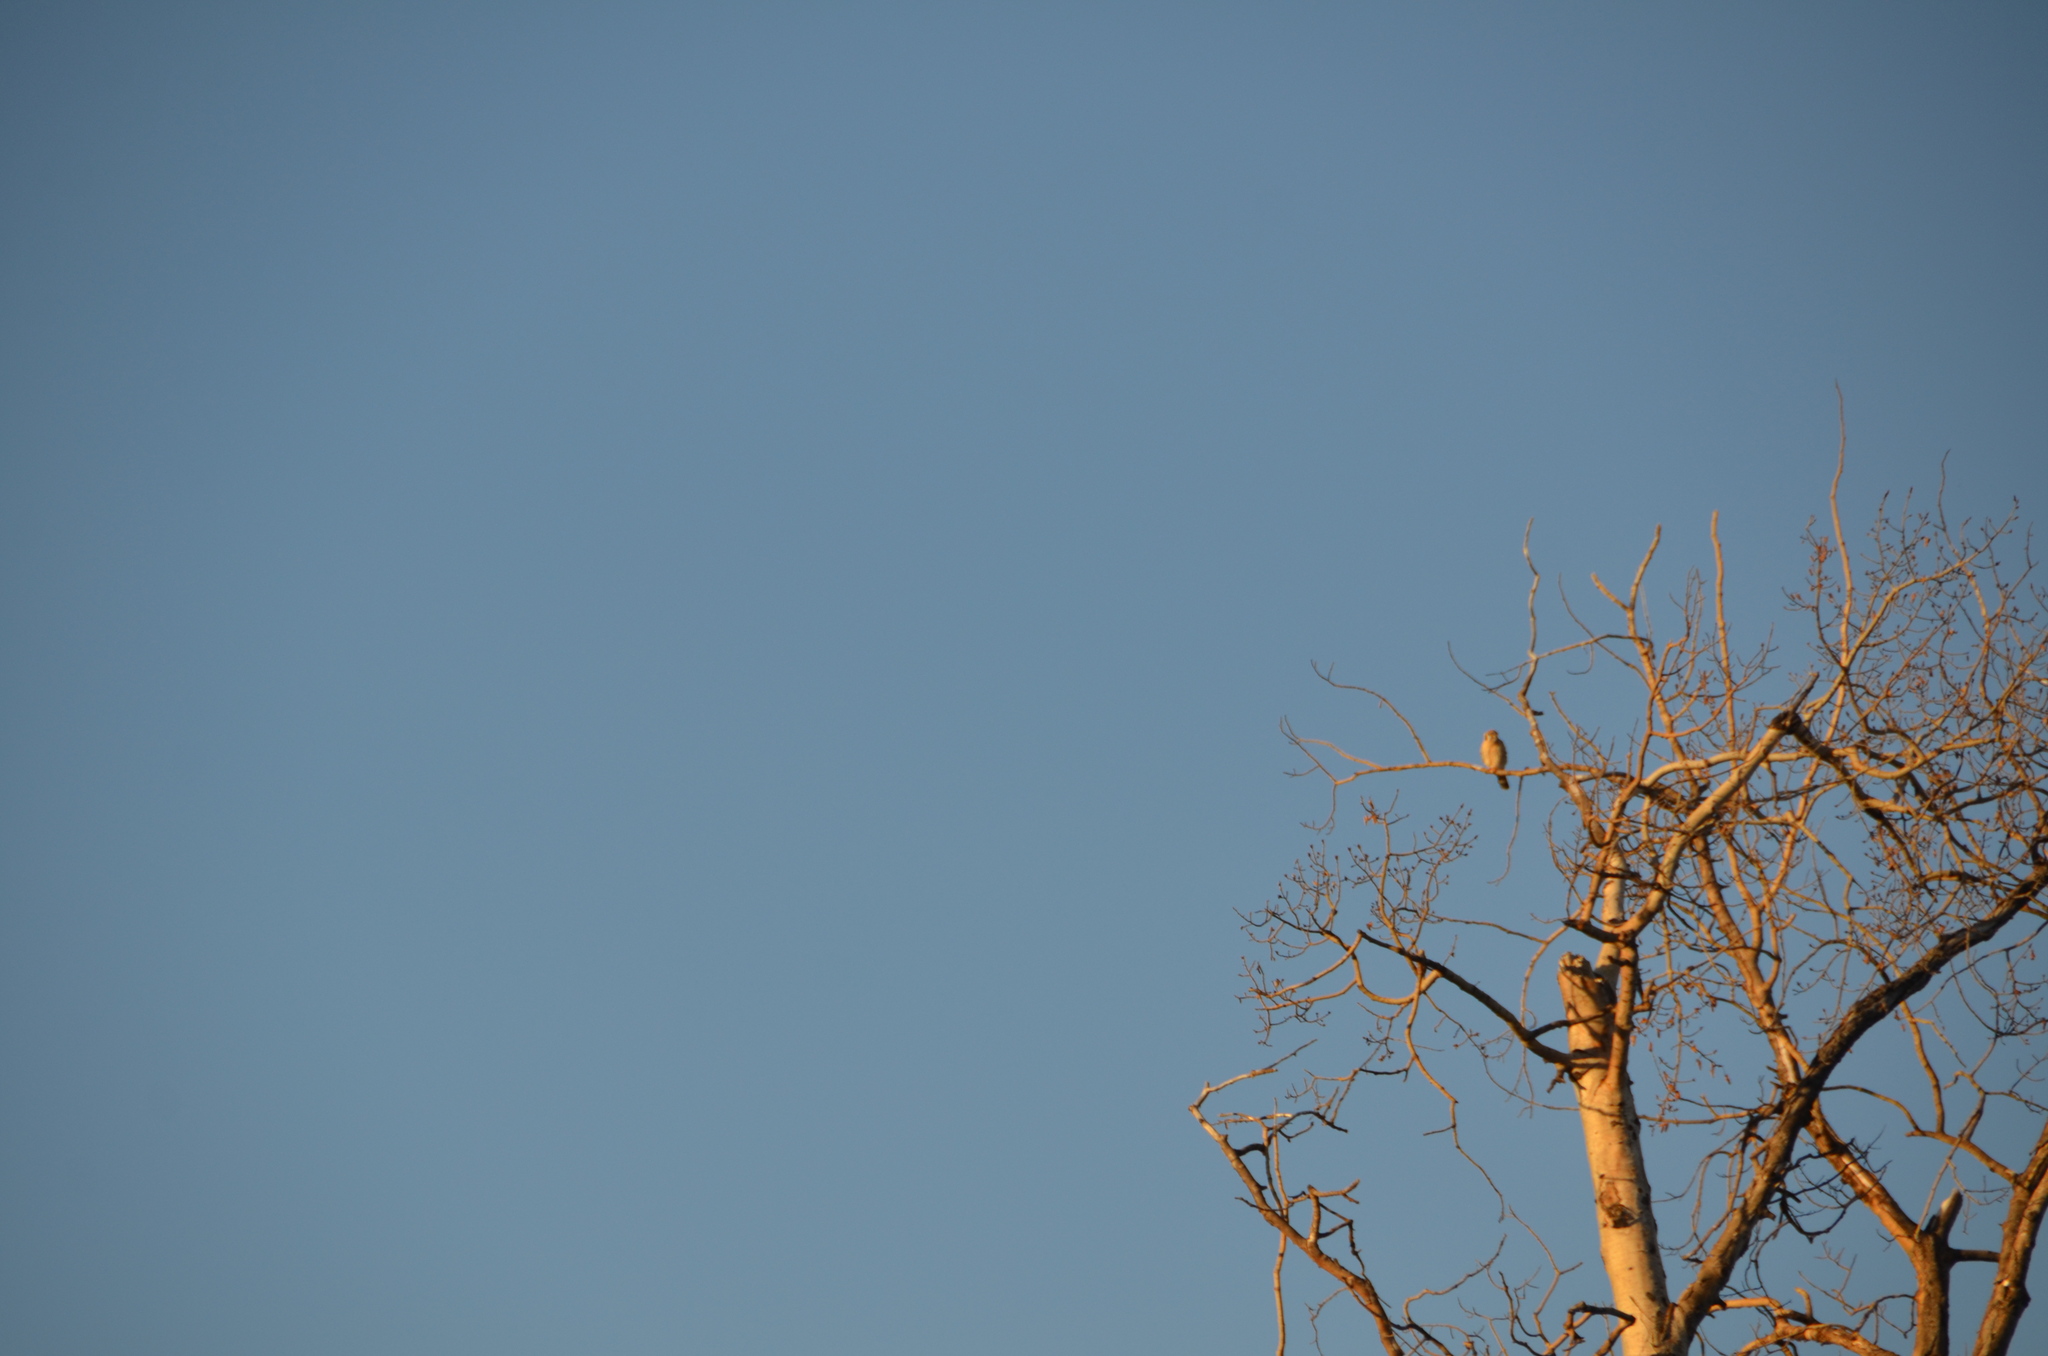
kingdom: Animalia
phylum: Chordata
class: Aves
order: Falconiformes
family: Falconidae
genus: Falco
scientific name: Falco sparverius
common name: American kestrel
